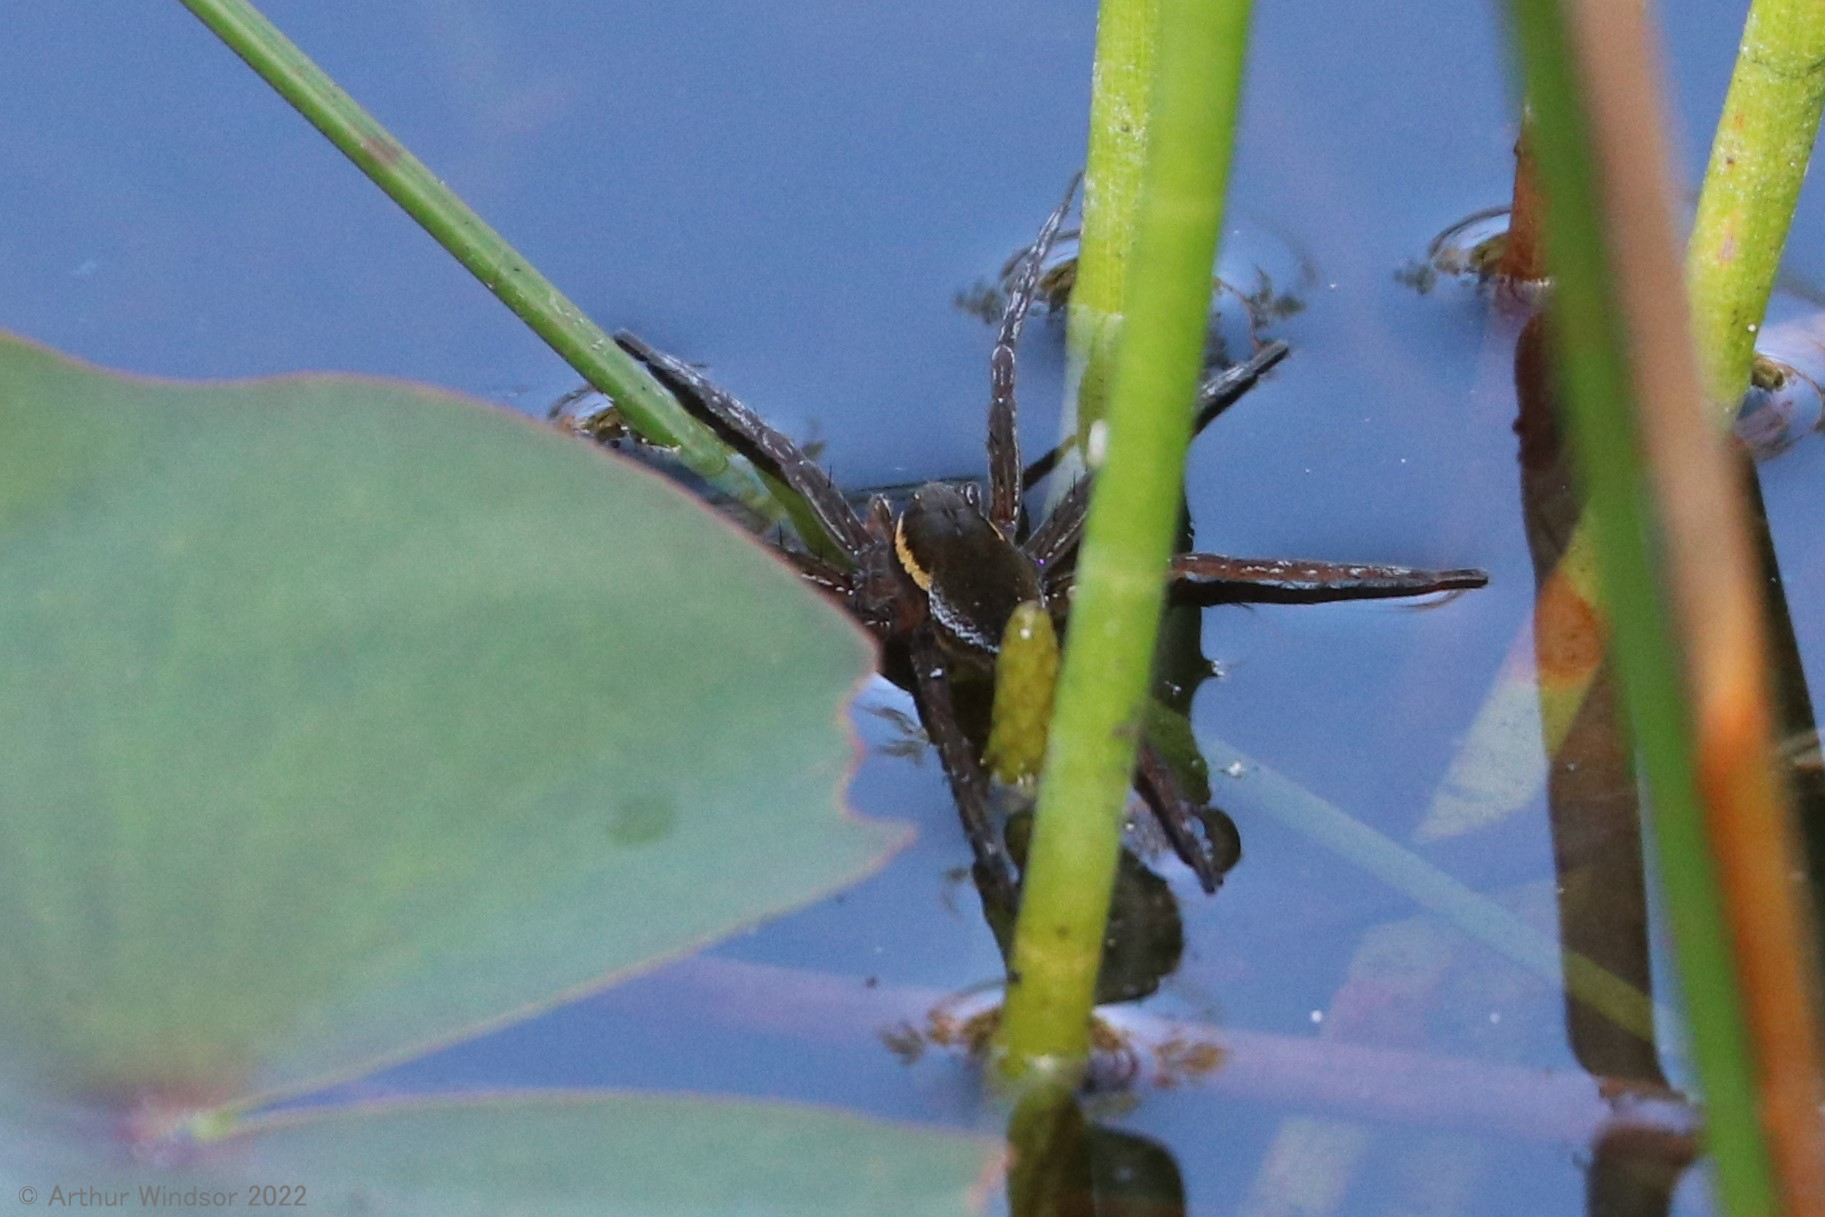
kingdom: Animalia
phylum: Arthropoda
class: Arachnida
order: Araneae
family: Pisauridae
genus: Dolomedes
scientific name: Dolomedes triton
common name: Six-spotted fishing spider
